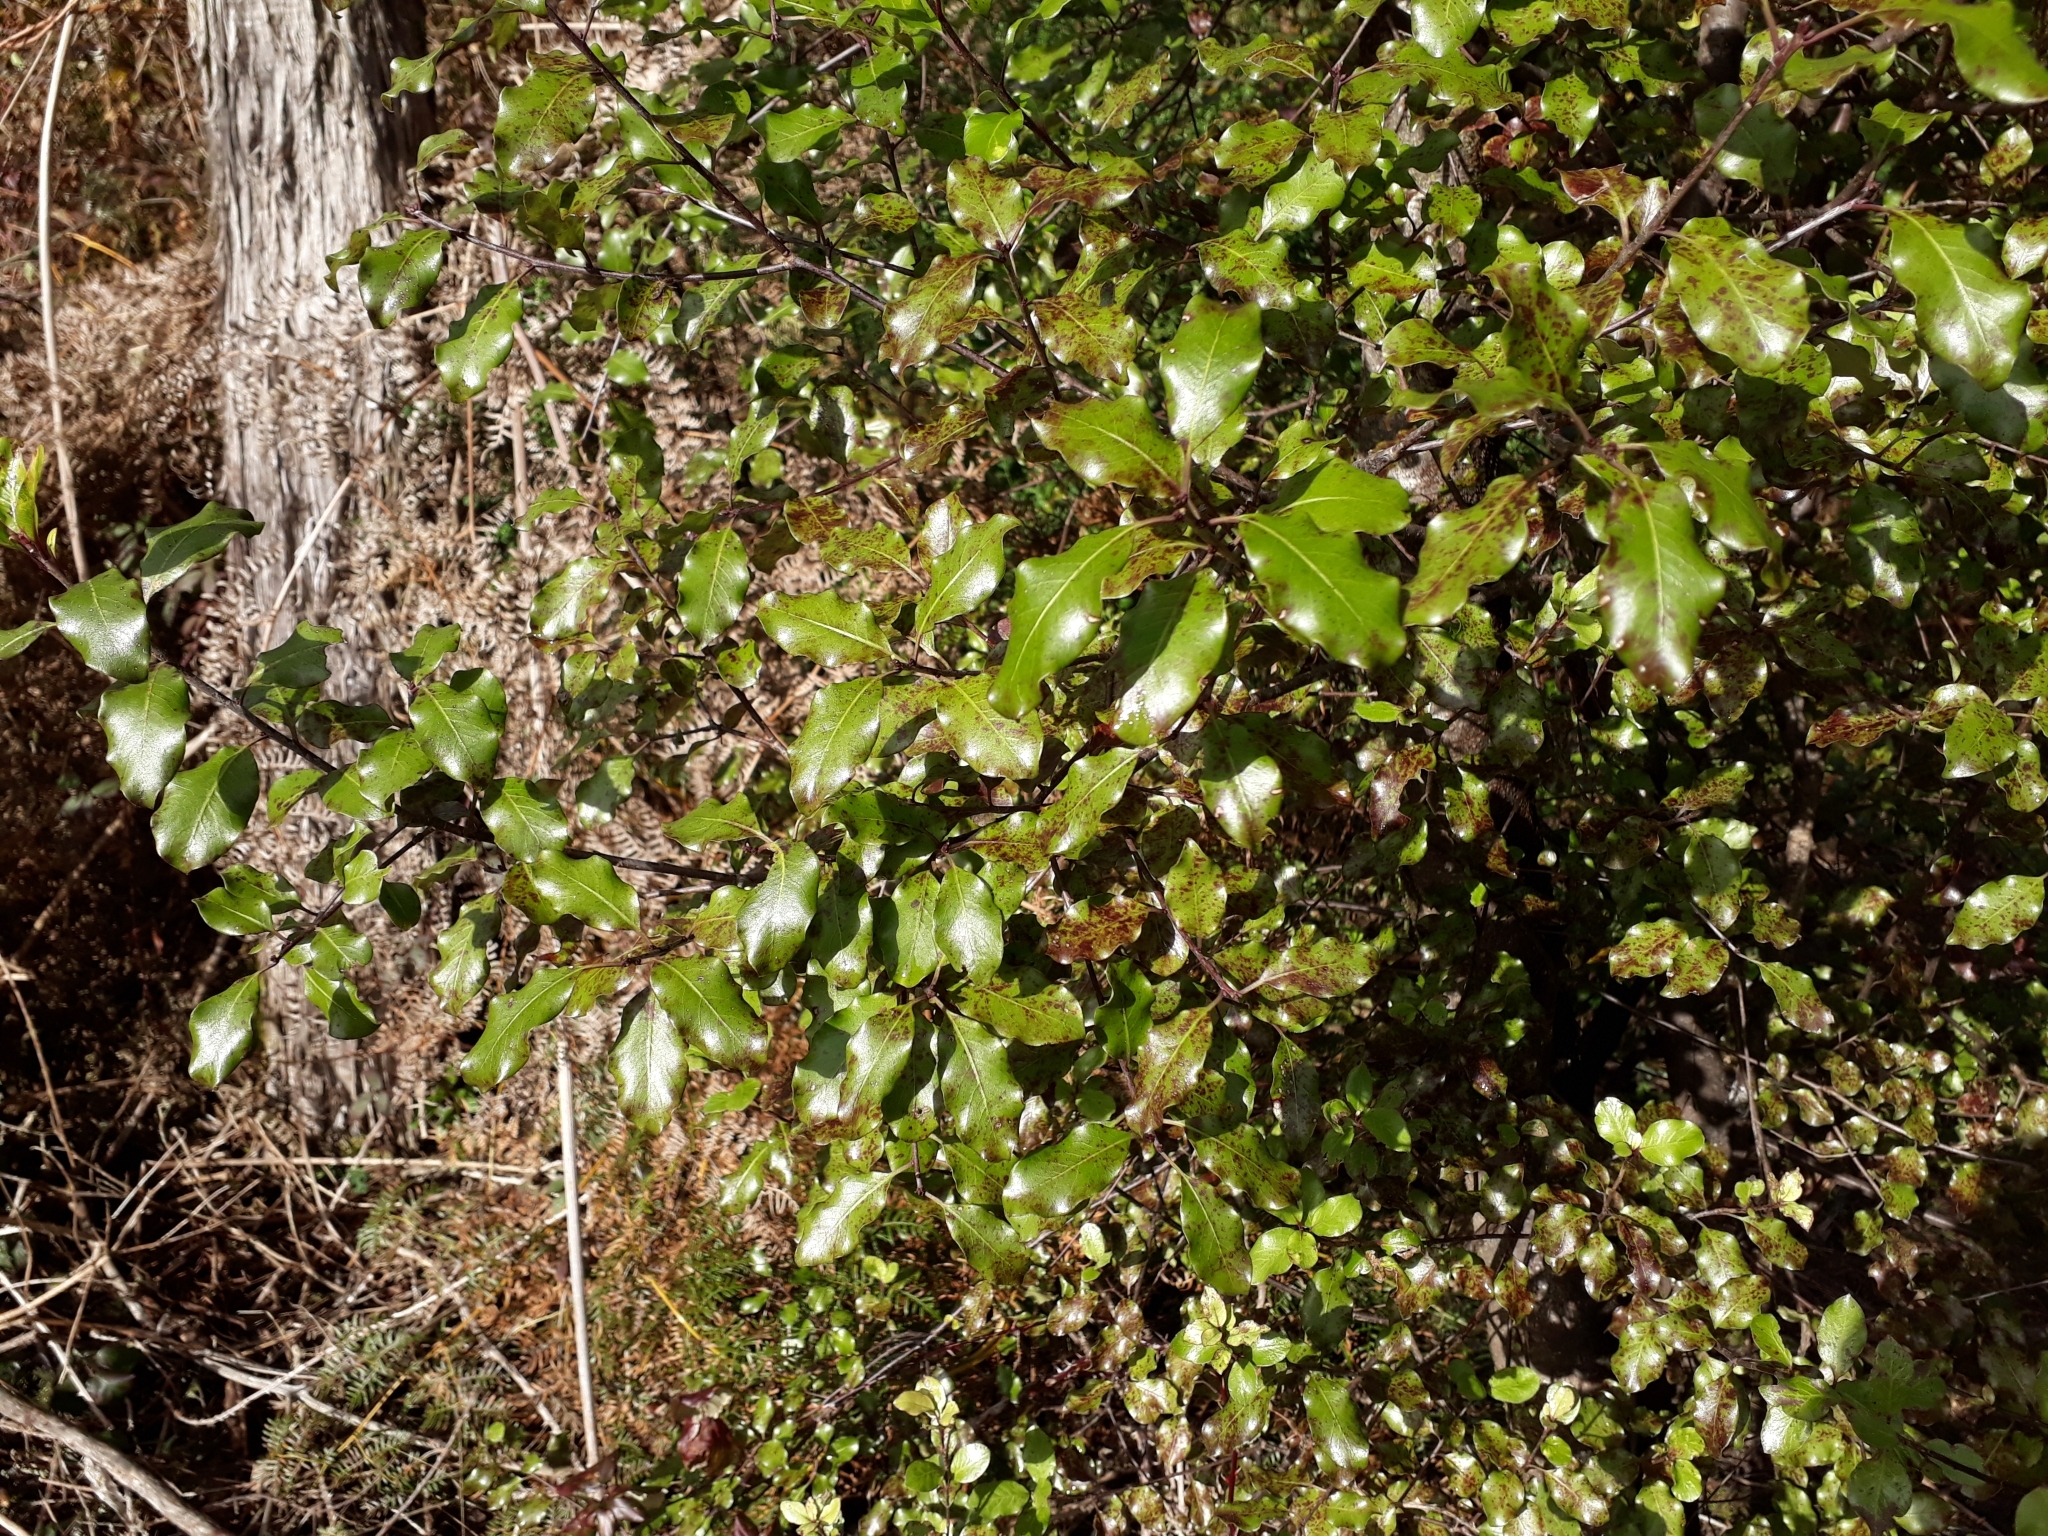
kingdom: Plantae
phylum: Tracheophyta
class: Magnoliopsida
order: Apiales
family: Pittosporaceae
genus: Pittosporum
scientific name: Pittosporum tenuifolium
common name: Kohuhu
